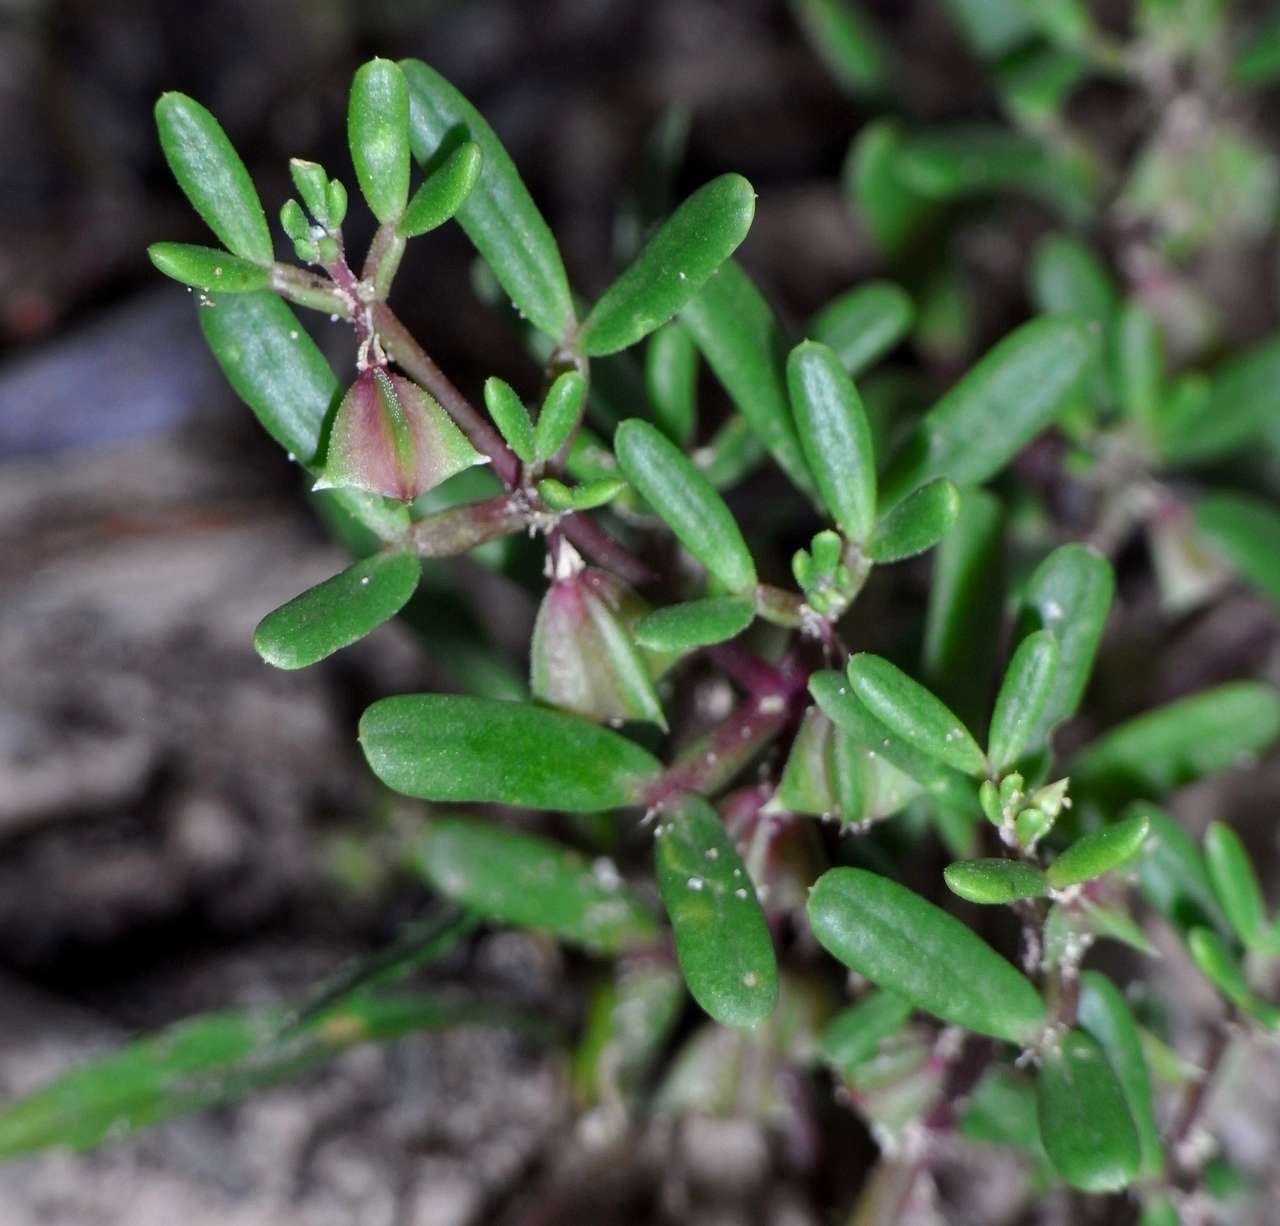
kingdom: Plantae
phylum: Tracheophyta
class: Magnoliopsida
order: Zygophyllales
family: Zygophyllaceae
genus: Roepera
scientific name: Roepera ammophila
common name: Sand twinleaf
